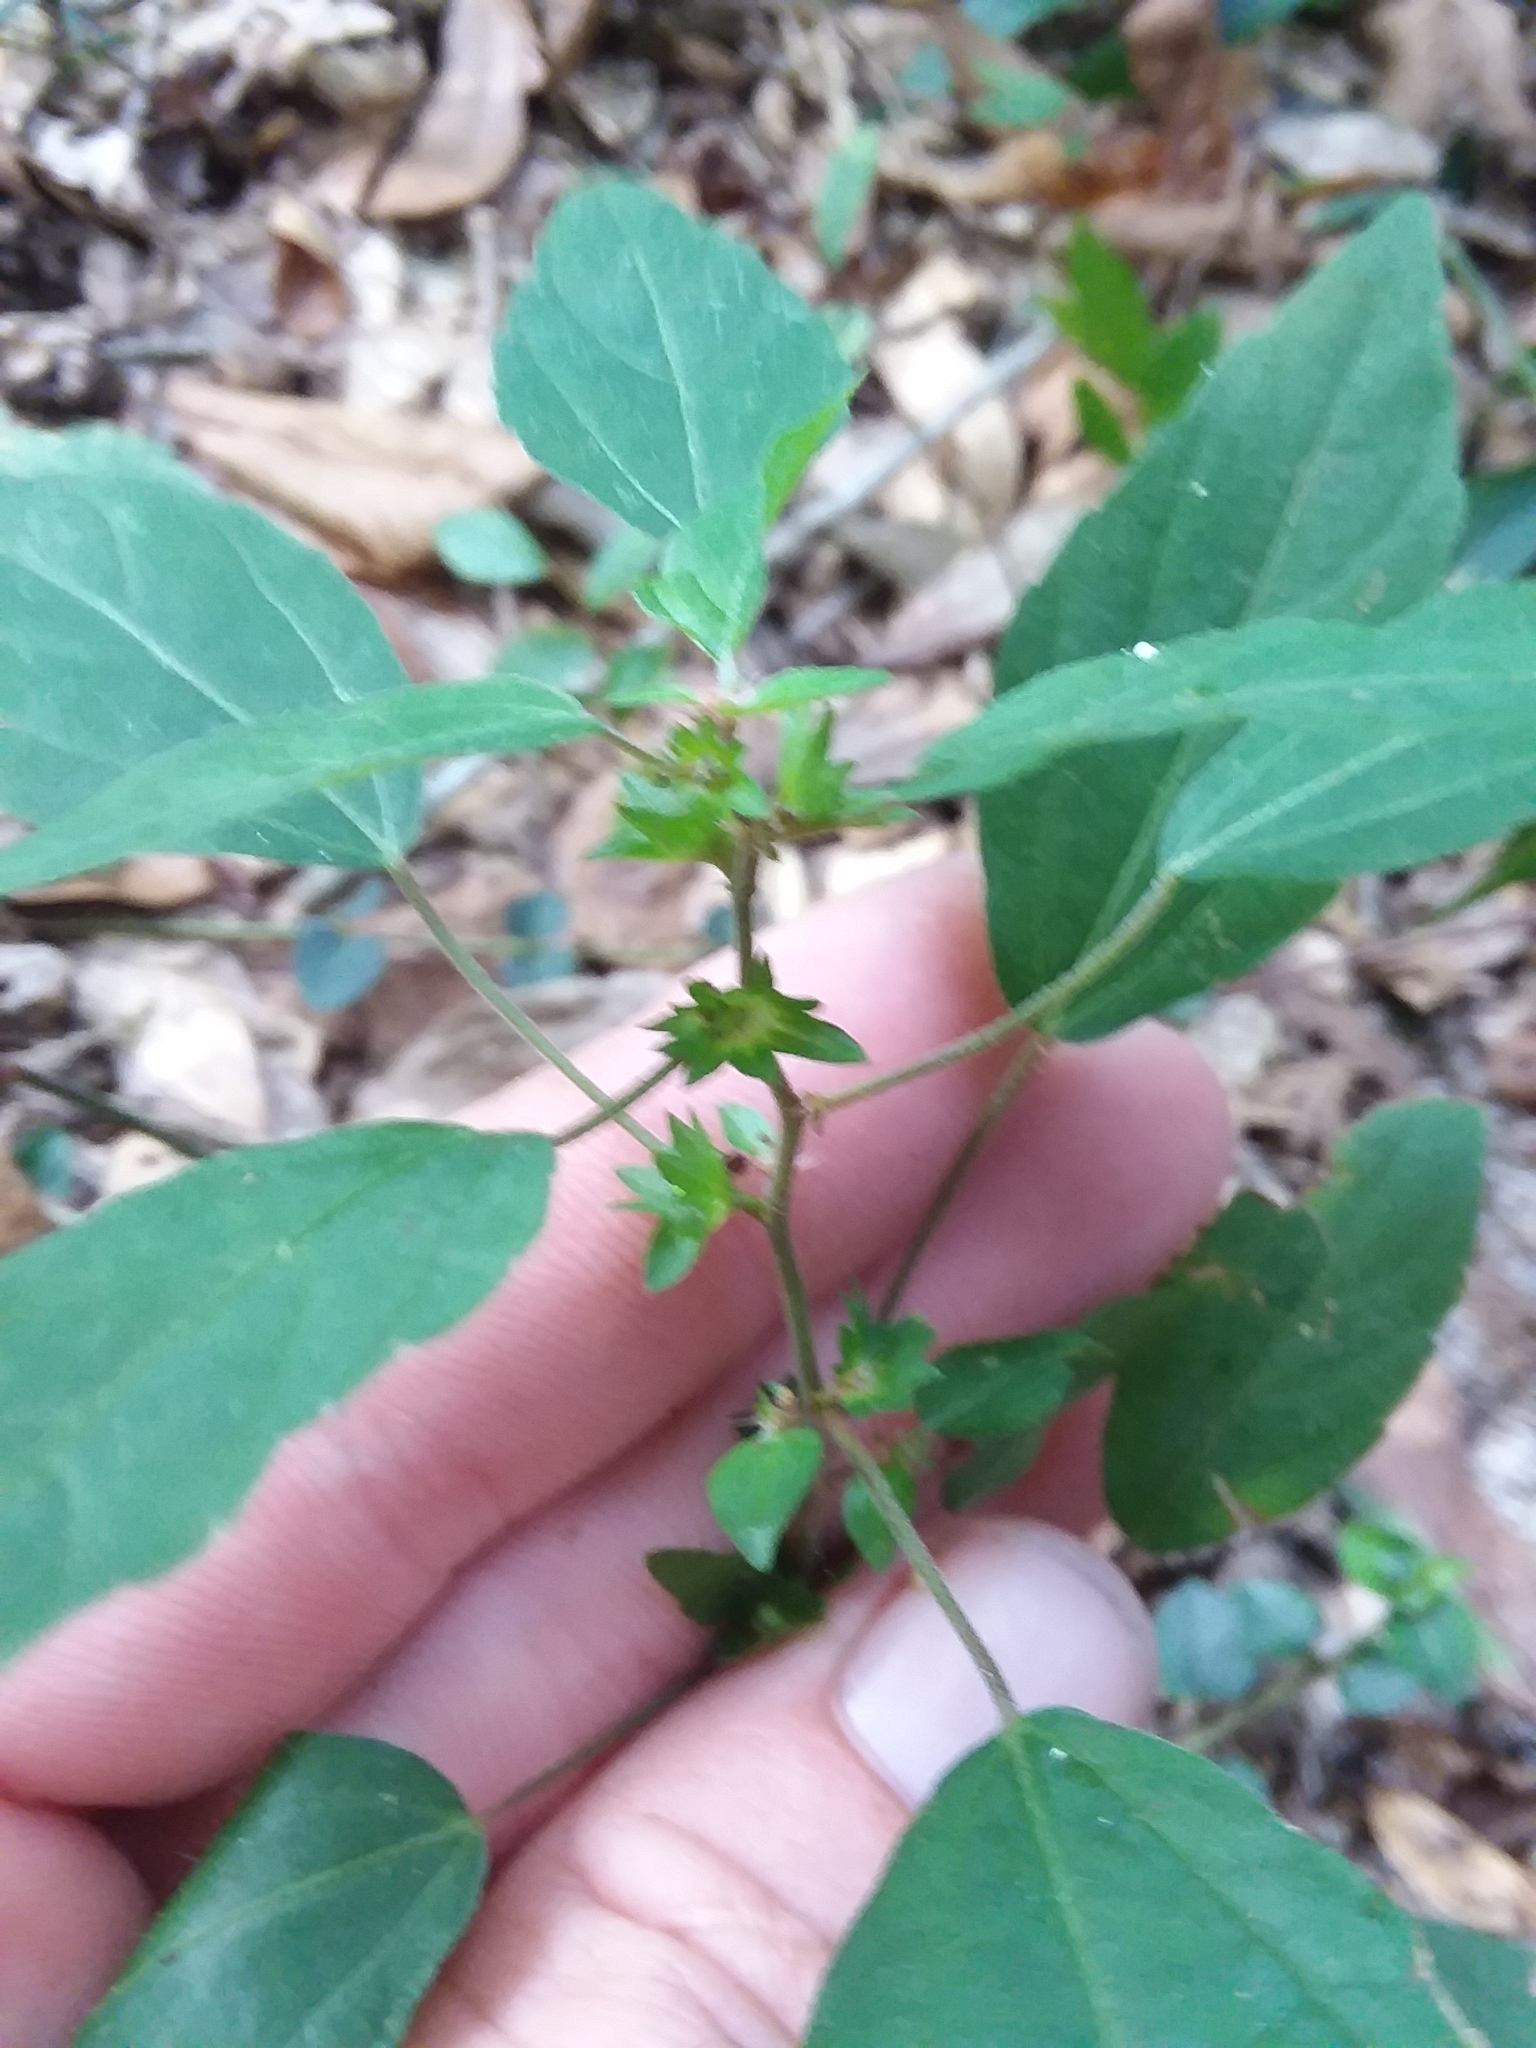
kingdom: Plantae
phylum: Tracheophyta
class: Magnoliopsida
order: Malpighiales
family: Euphorbiaceae
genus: Acalypha
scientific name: Acalypha rhomboidea
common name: Rhombic copperleaf
